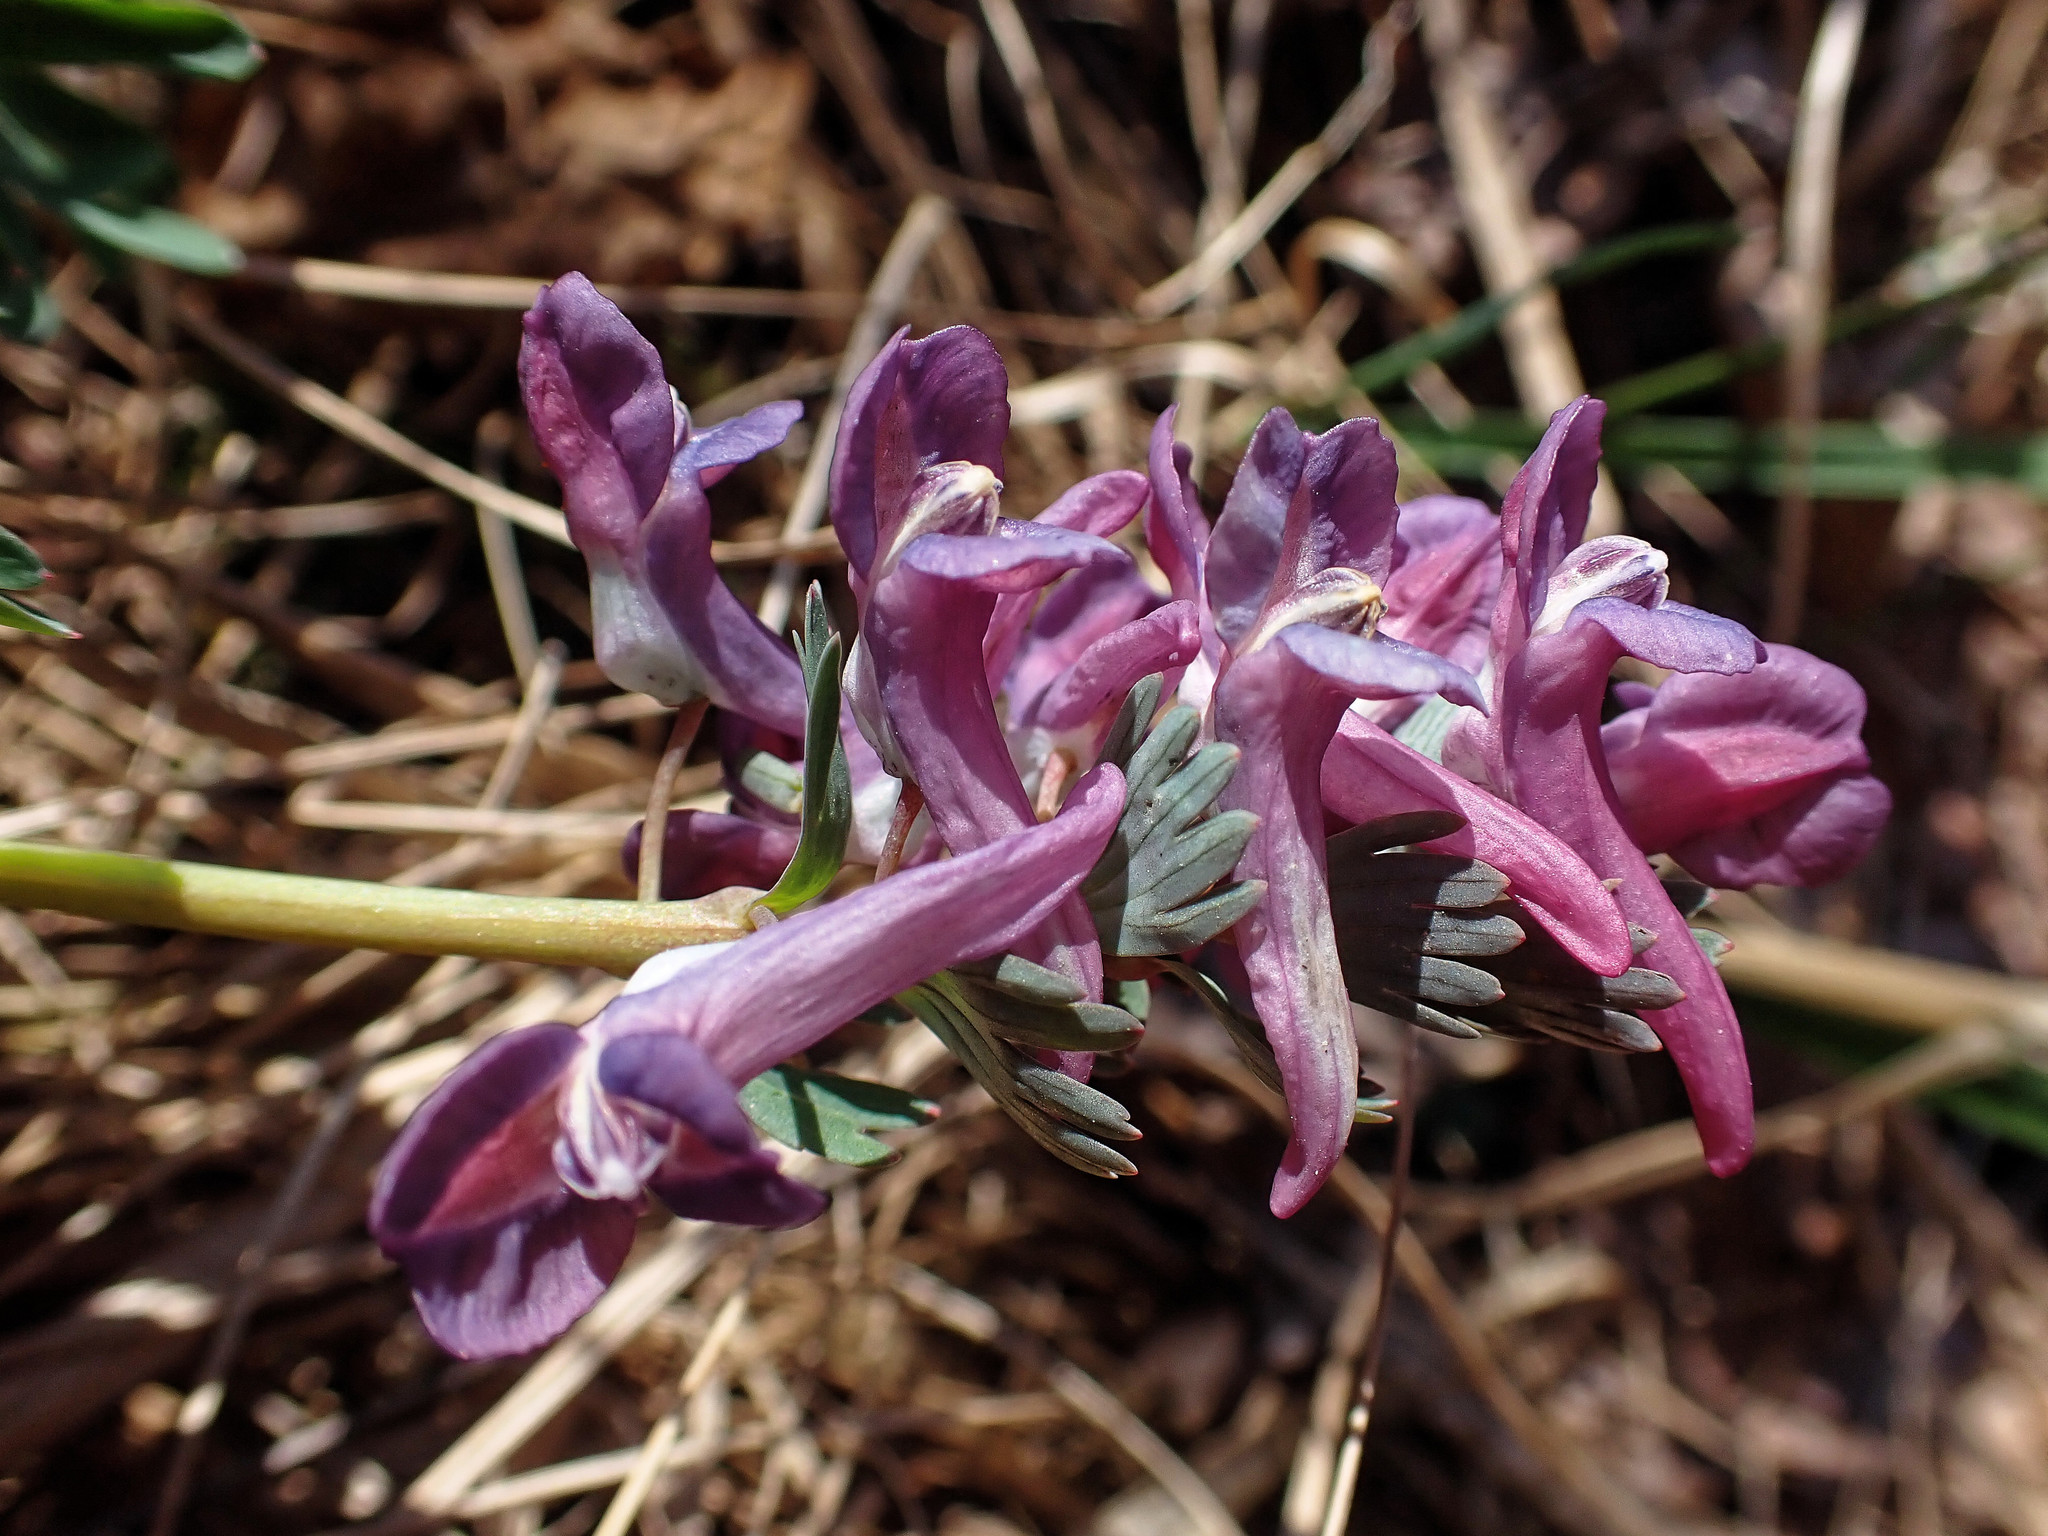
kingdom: Plantae
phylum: Tracheophyta
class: Magnoliopsida
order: Ranunculales
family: Papaveraceae
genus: Corydalis
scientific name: Corydalis solida
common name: Bird-in-a-bush
